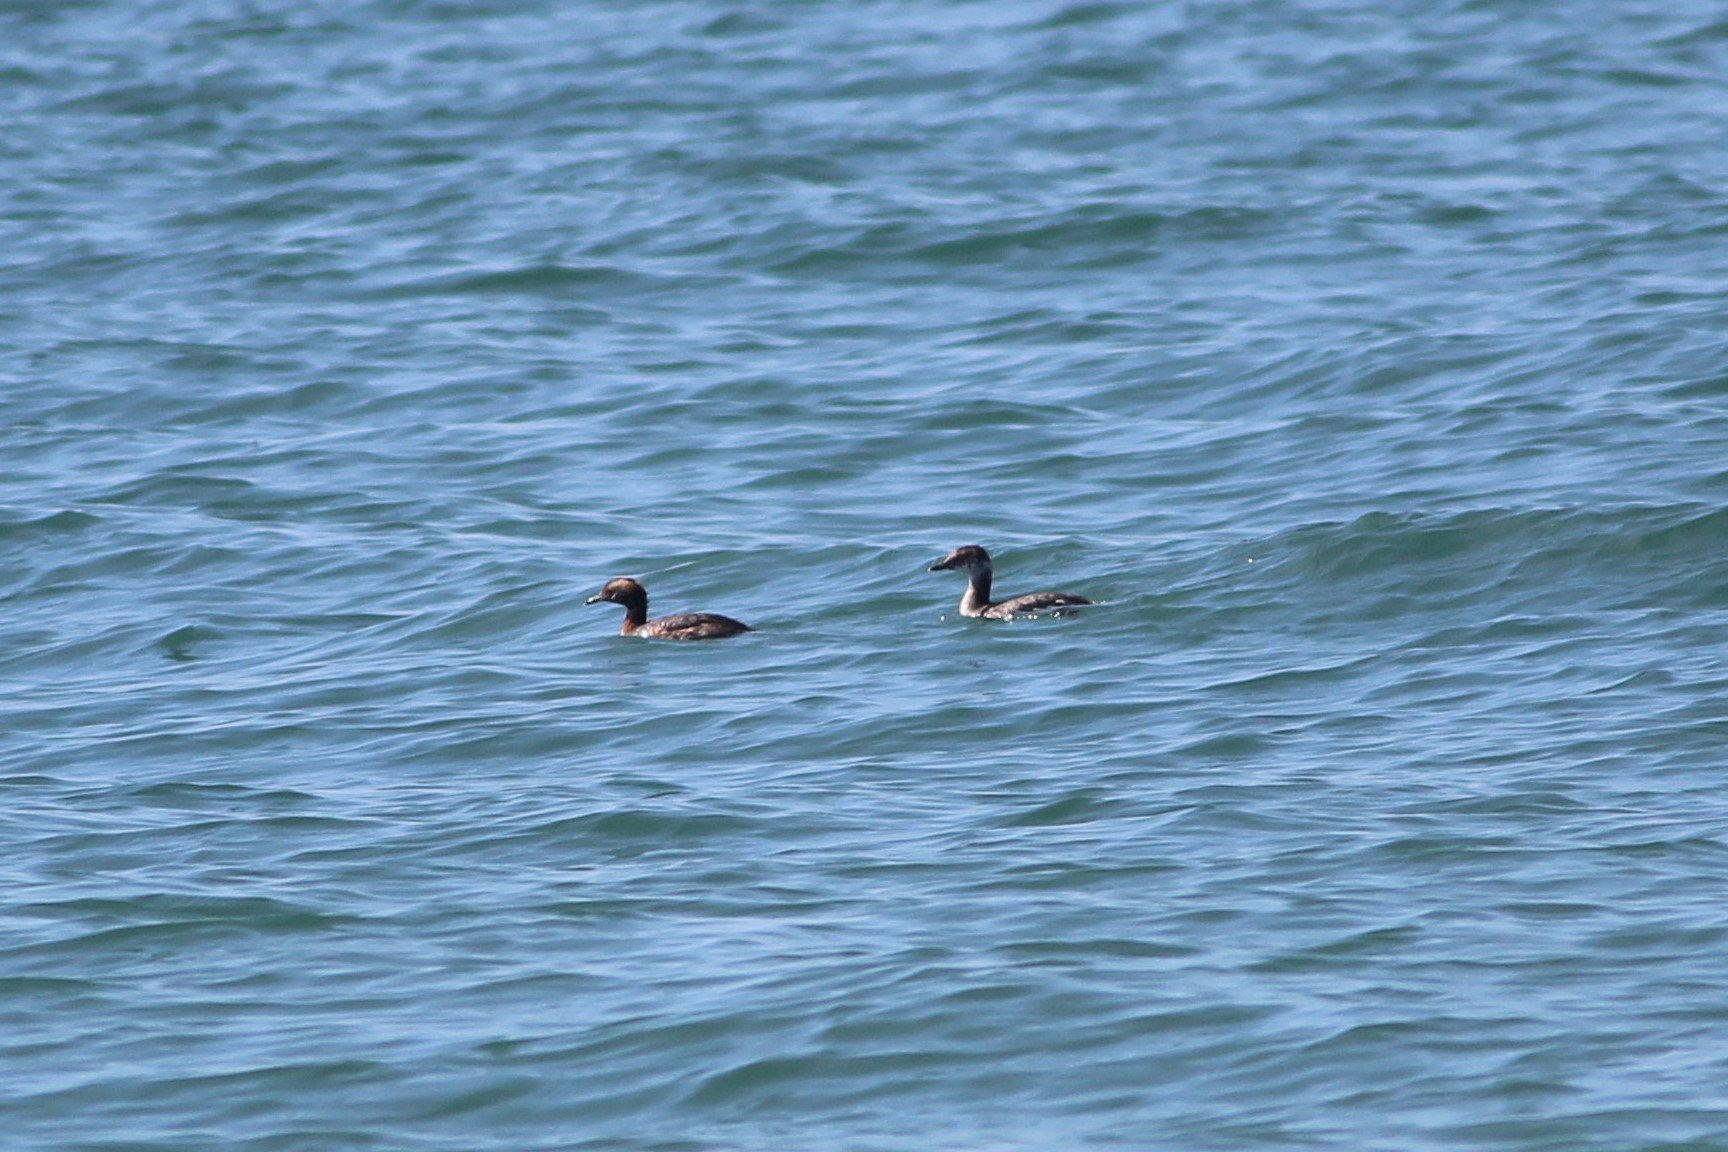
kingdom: Animalia
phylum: Chordata
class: Aves
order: Podicipediformes
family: Podicipedidae
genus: Podiceps
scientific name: Podiceps auritus
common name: Horned grebe
